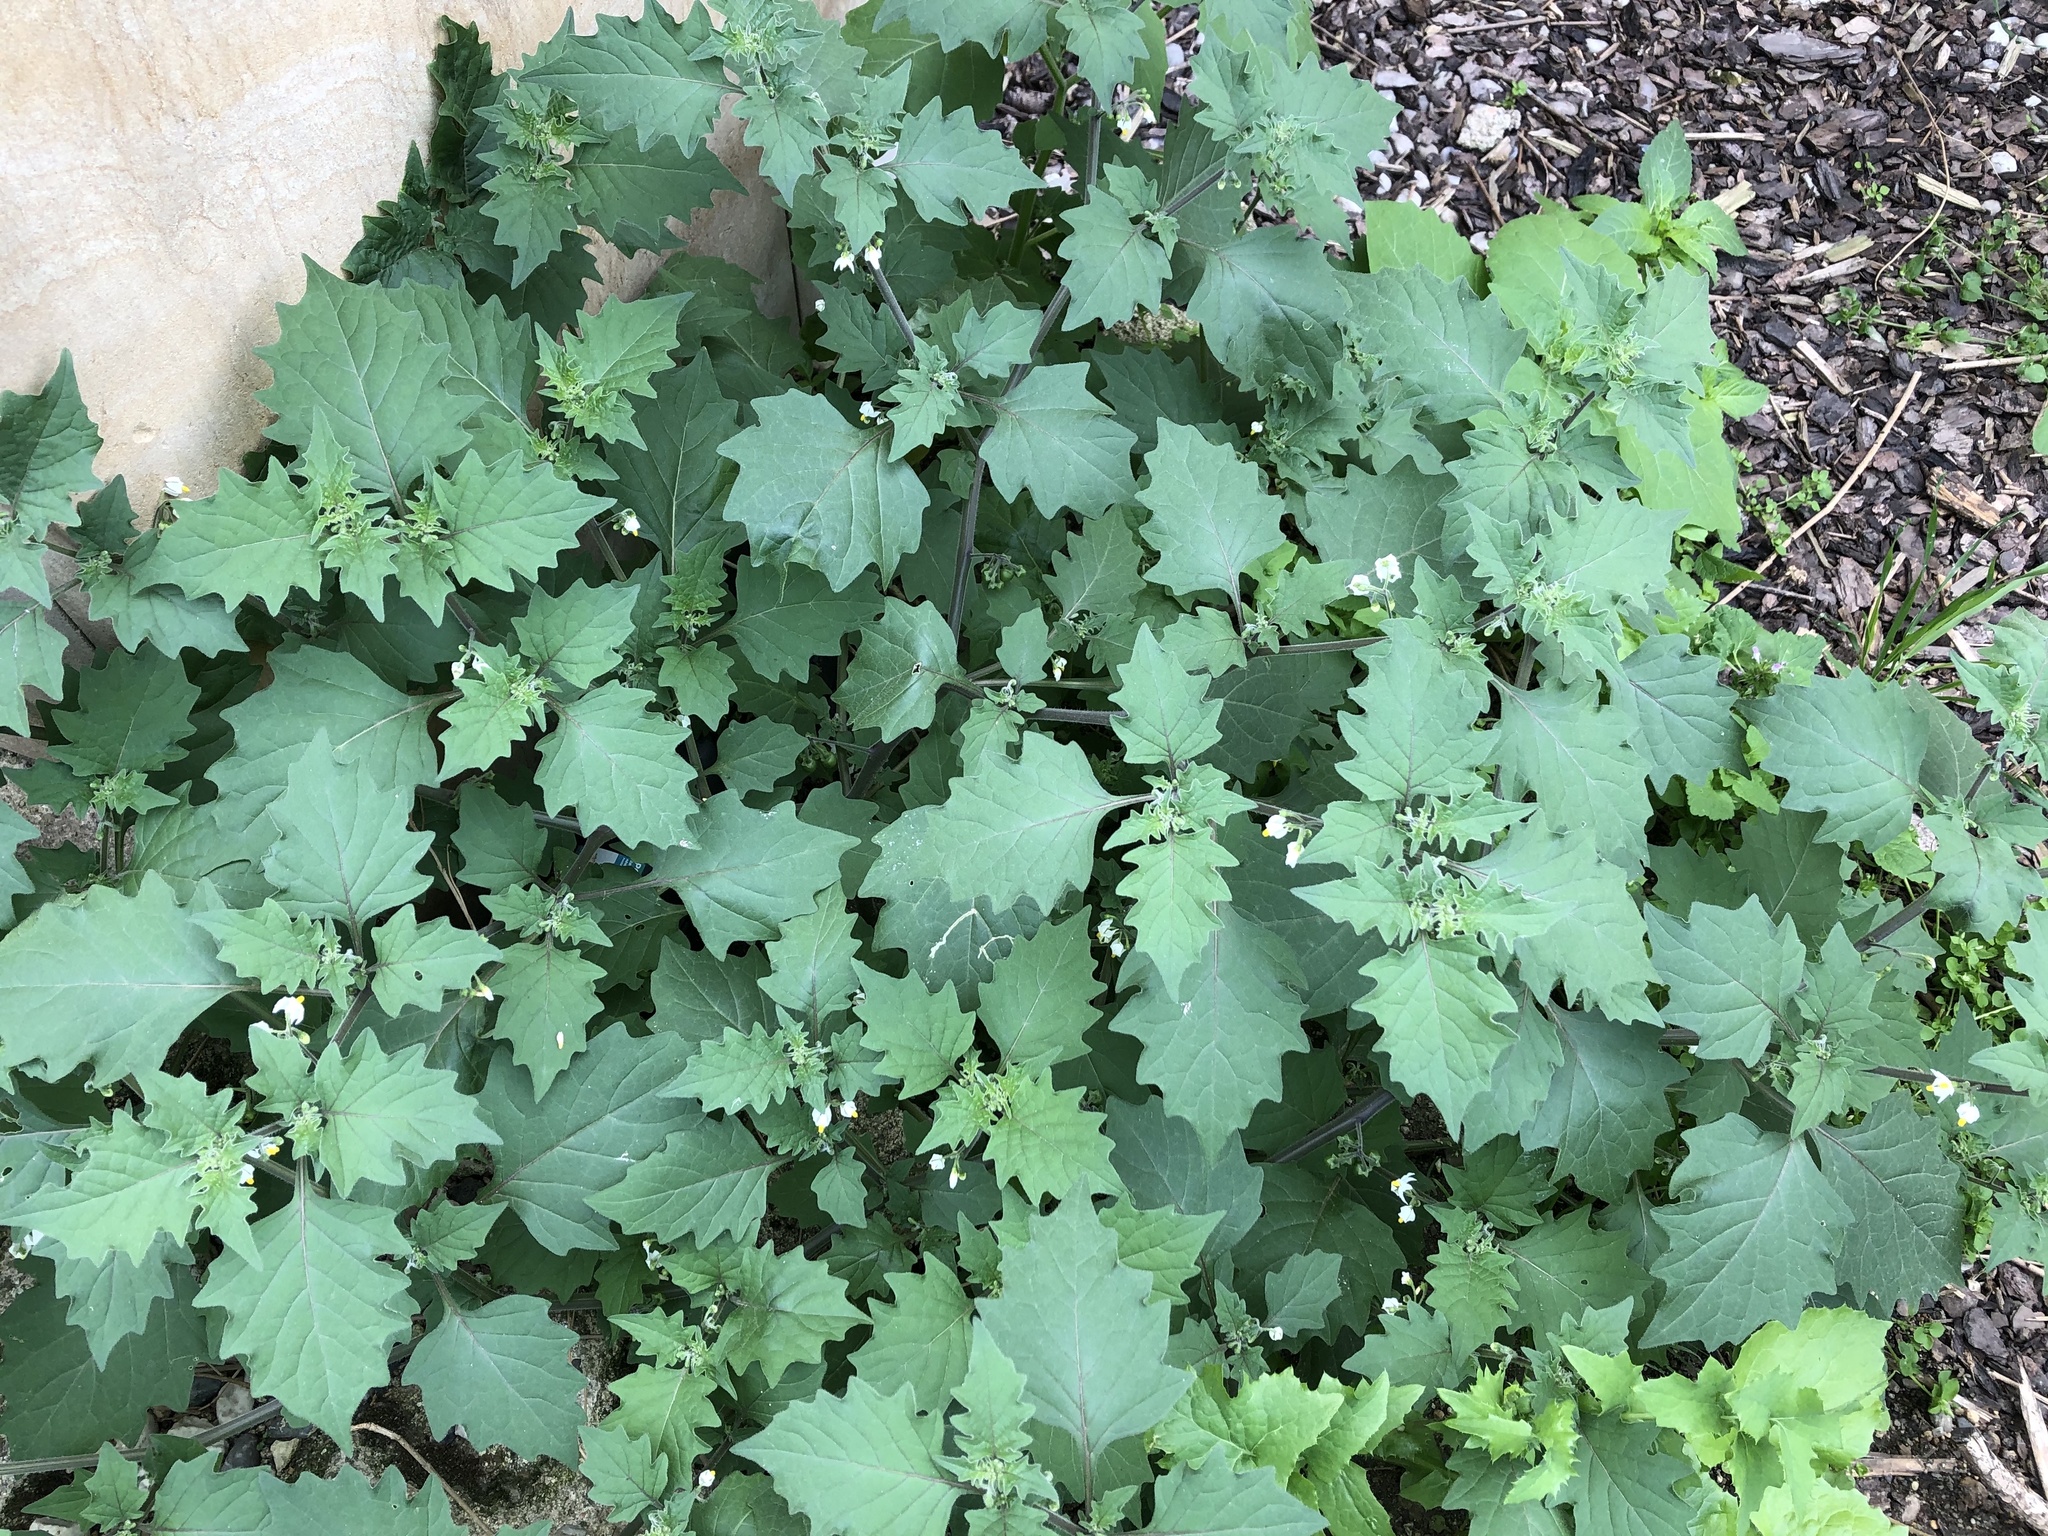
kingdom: Plantae
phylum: Tracheophyta
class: Magnoliopsida
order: Solanales
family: Solanaceae
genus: Solanum
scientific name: Solanum decipiens
